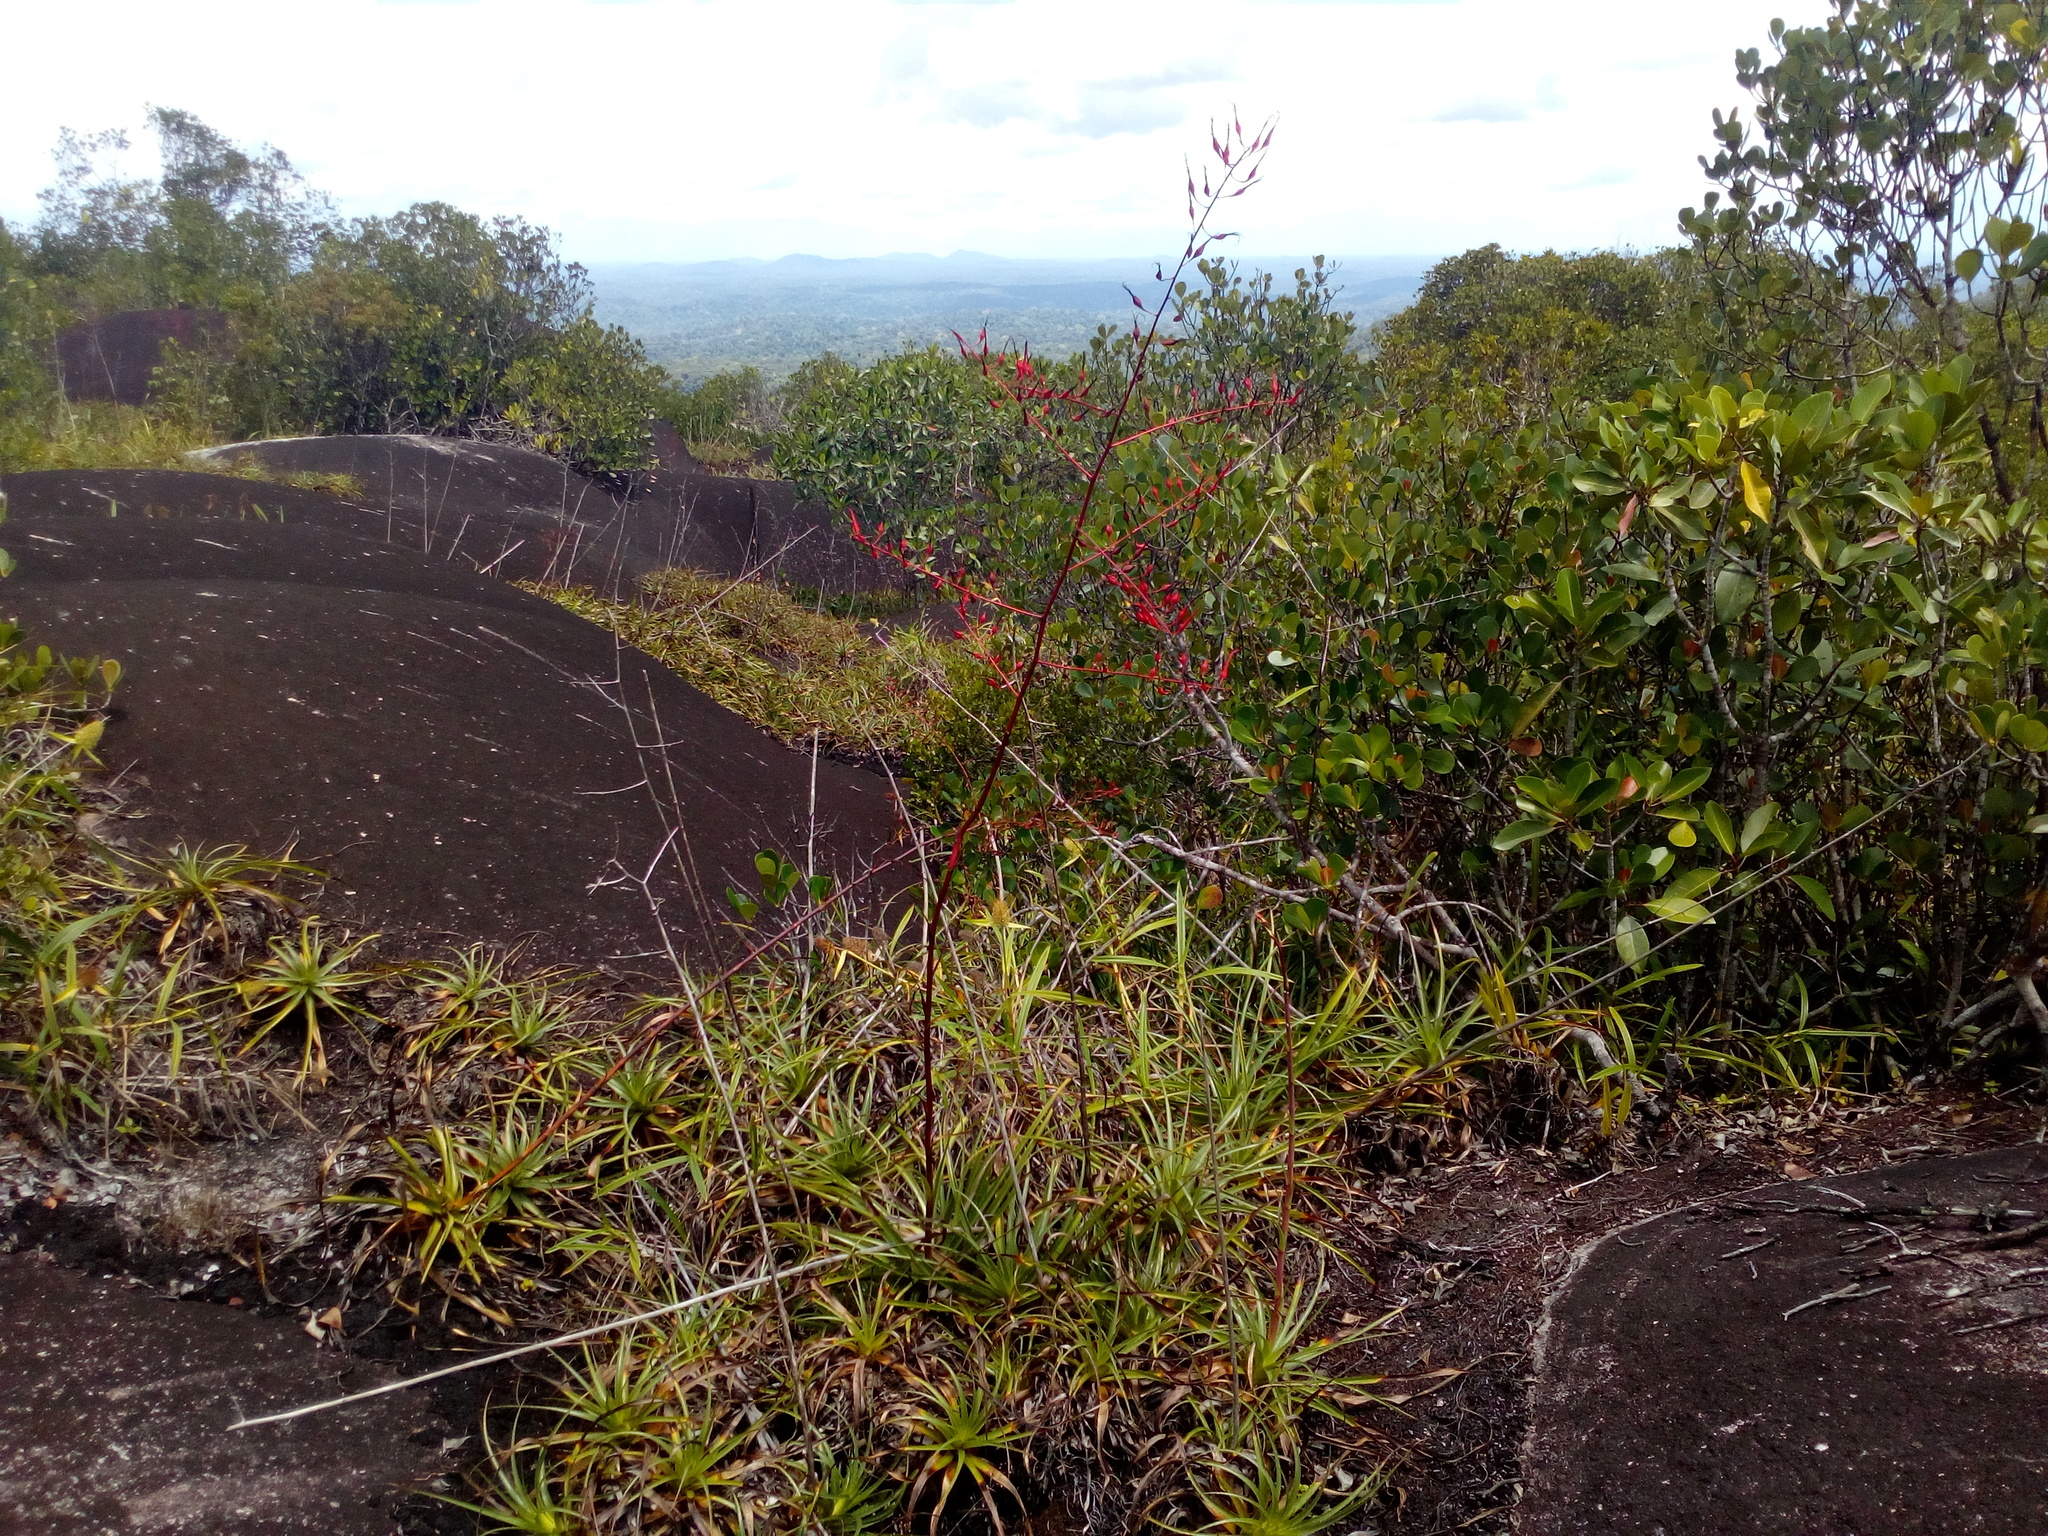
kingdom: Plantae
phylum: Tracheophyta
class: Liliopsida
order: Poales
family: Bromeliaceae
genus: Pitcairnia
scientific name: Pitcairnia cremersii
